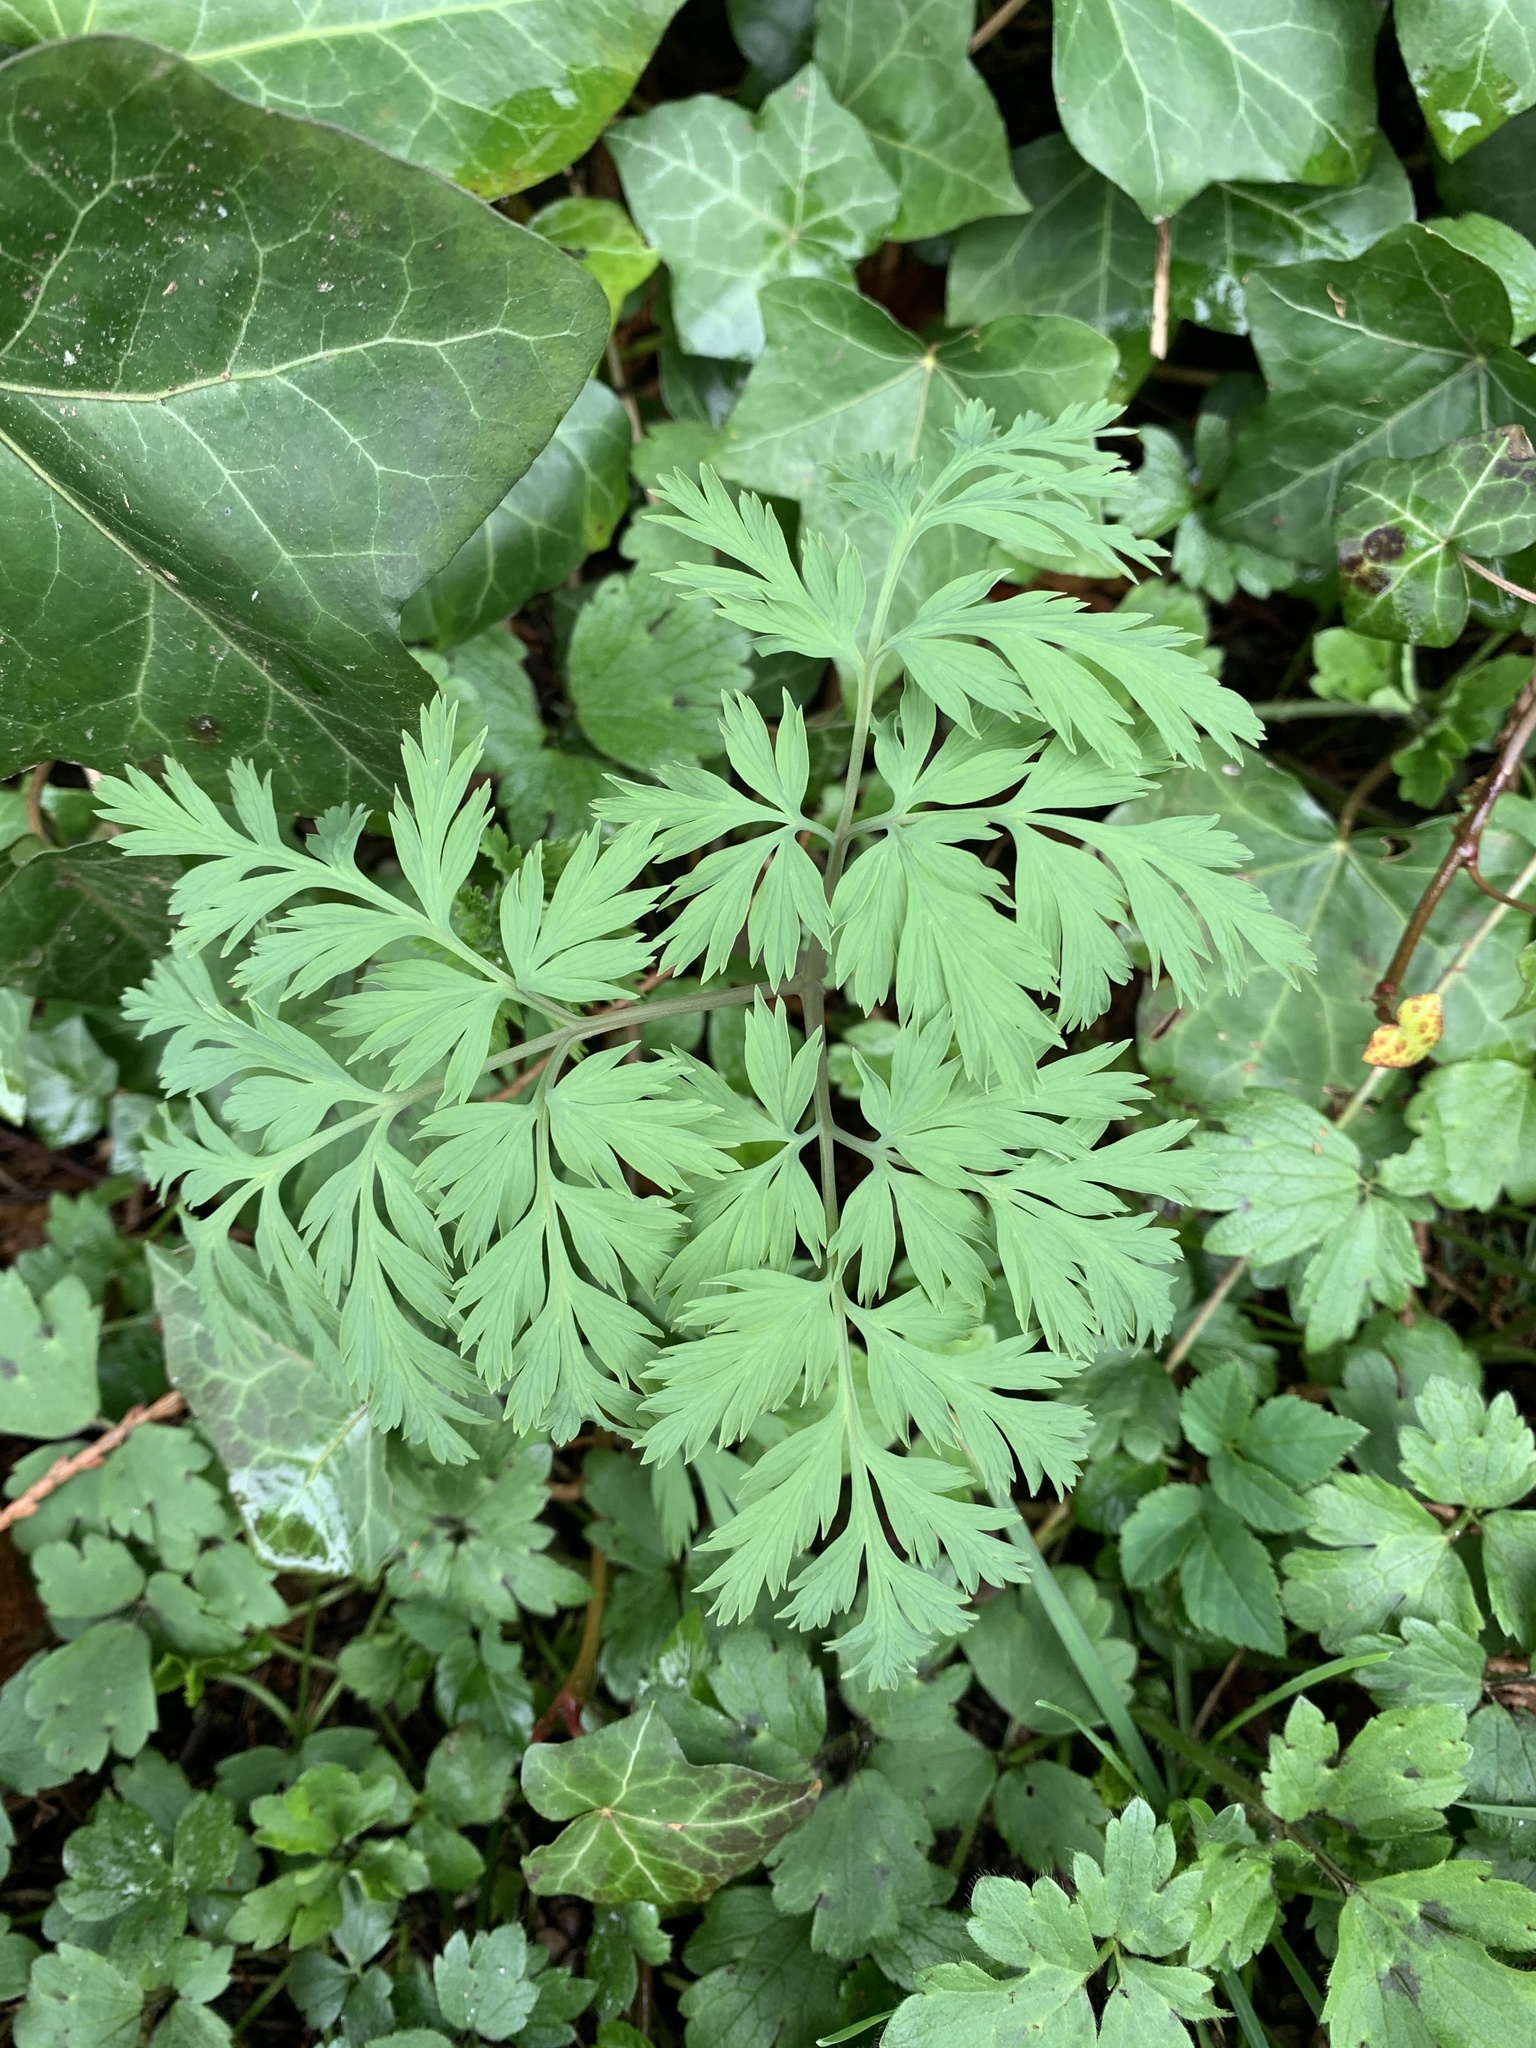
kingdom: Plantae
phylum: Tracheophyta
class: Magnoliopsida
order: Ranunculales
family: Papaveraceae
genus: Dicentra
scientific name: Dicentra formosa
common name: Bleeding-heart
